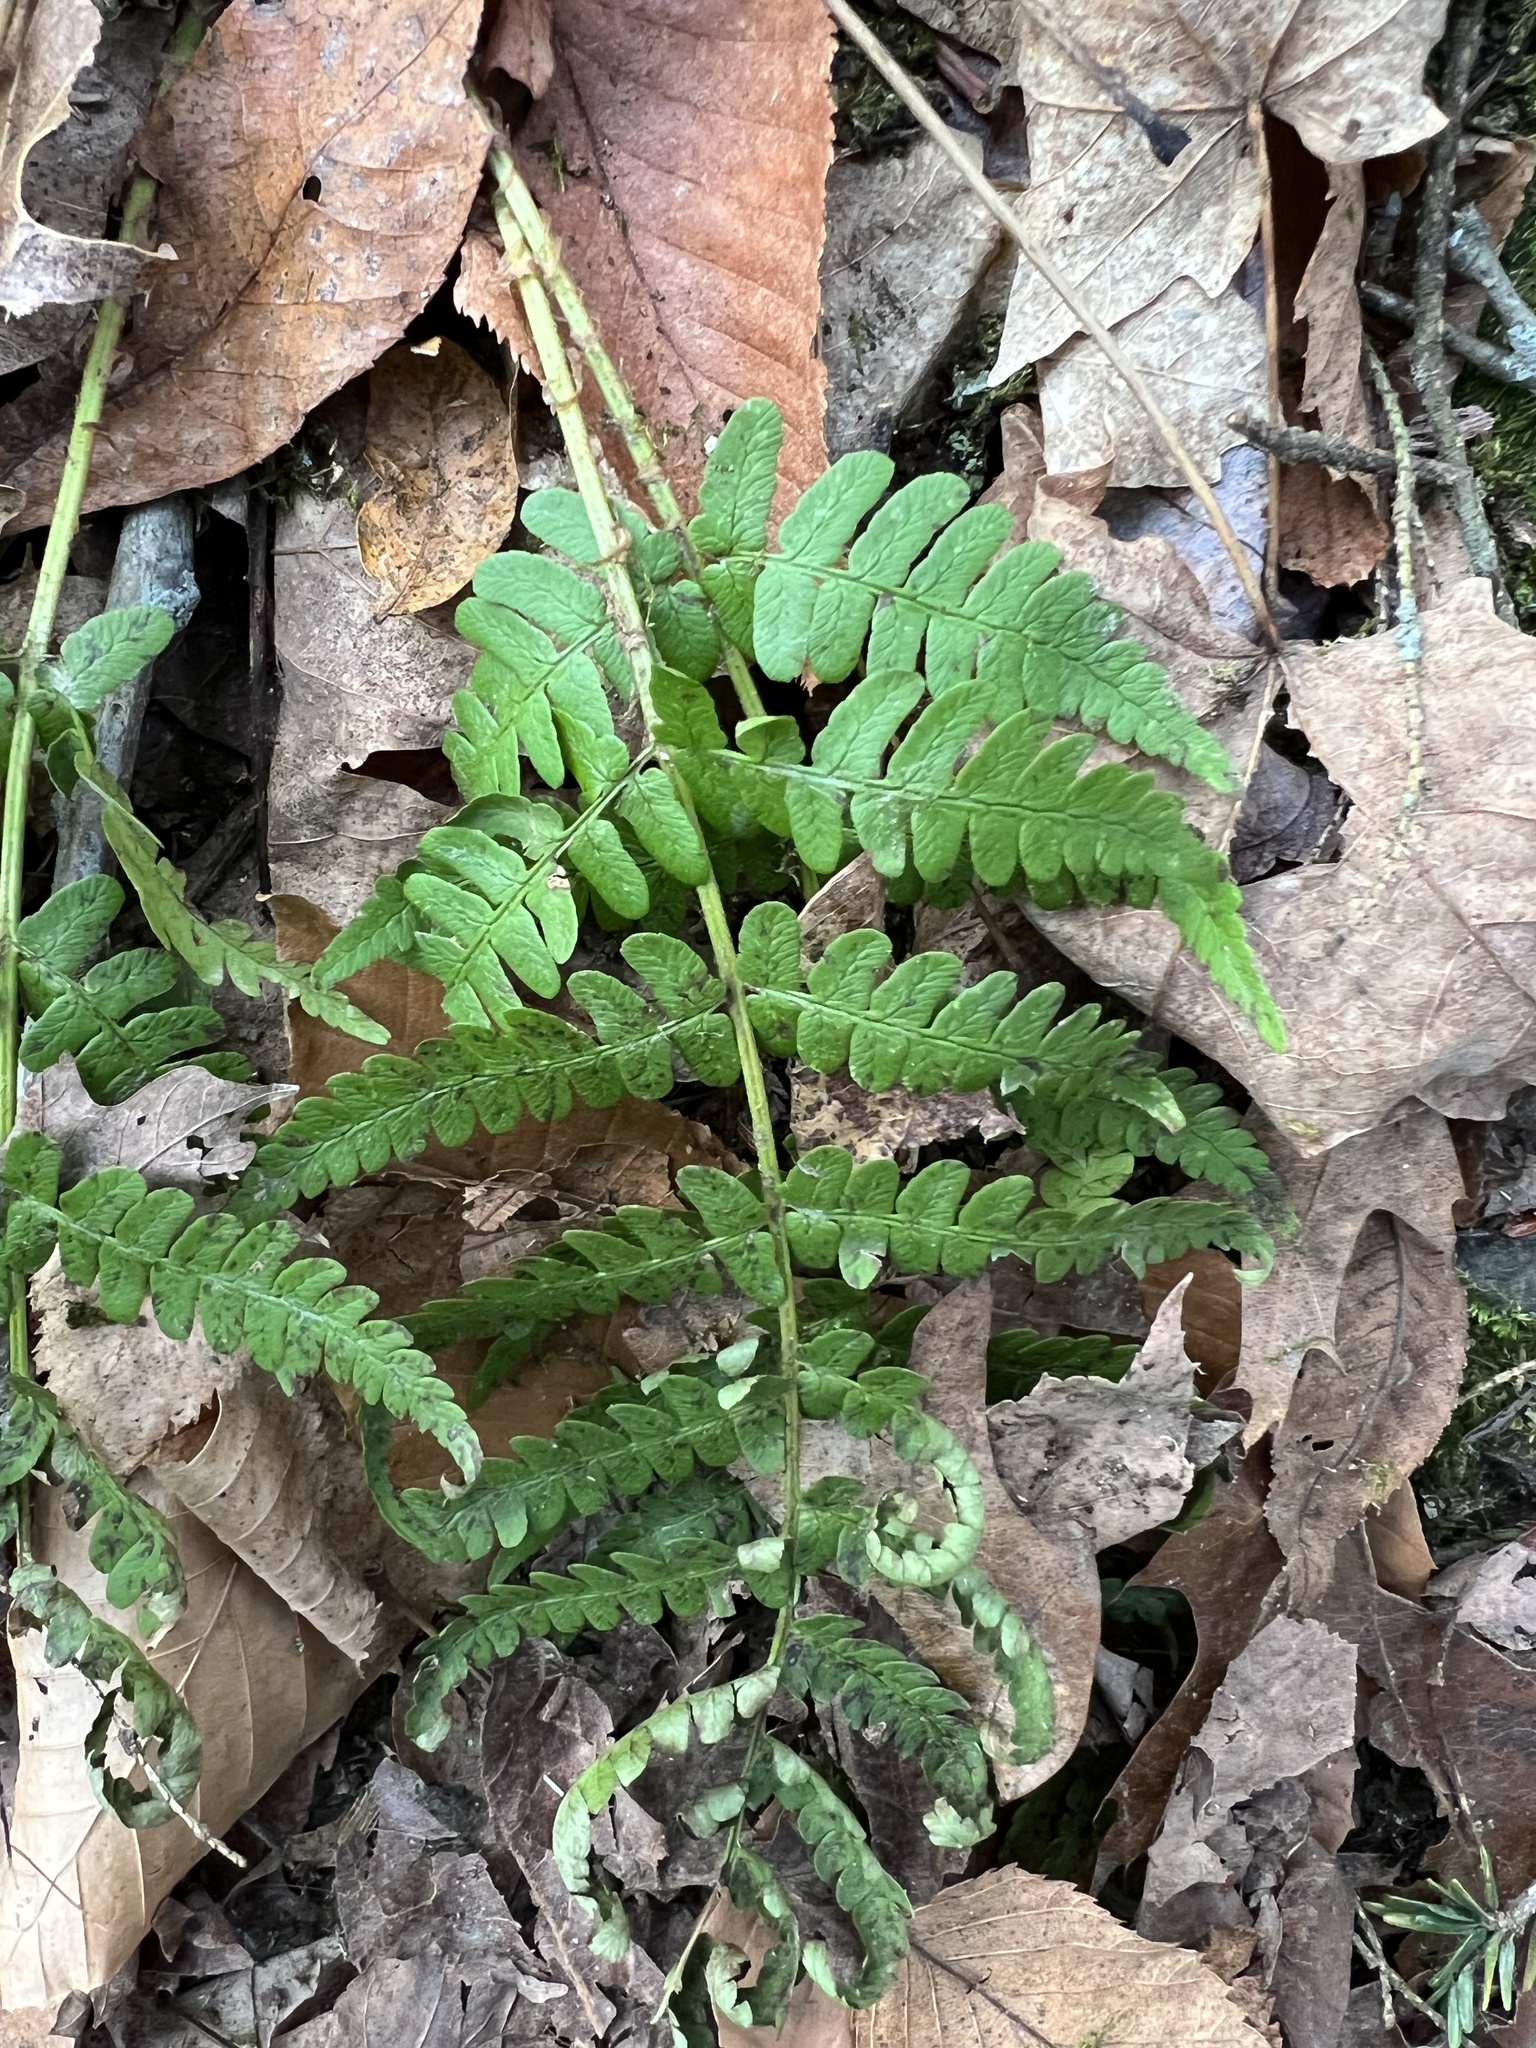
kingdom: Plantae
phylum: Tracheophyta
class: Polypodiopsida
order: Polypodiales
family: Dryopteridaceae
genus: Dryopteris
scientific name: Dryopteris marginalis
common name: Marginal wood fern
